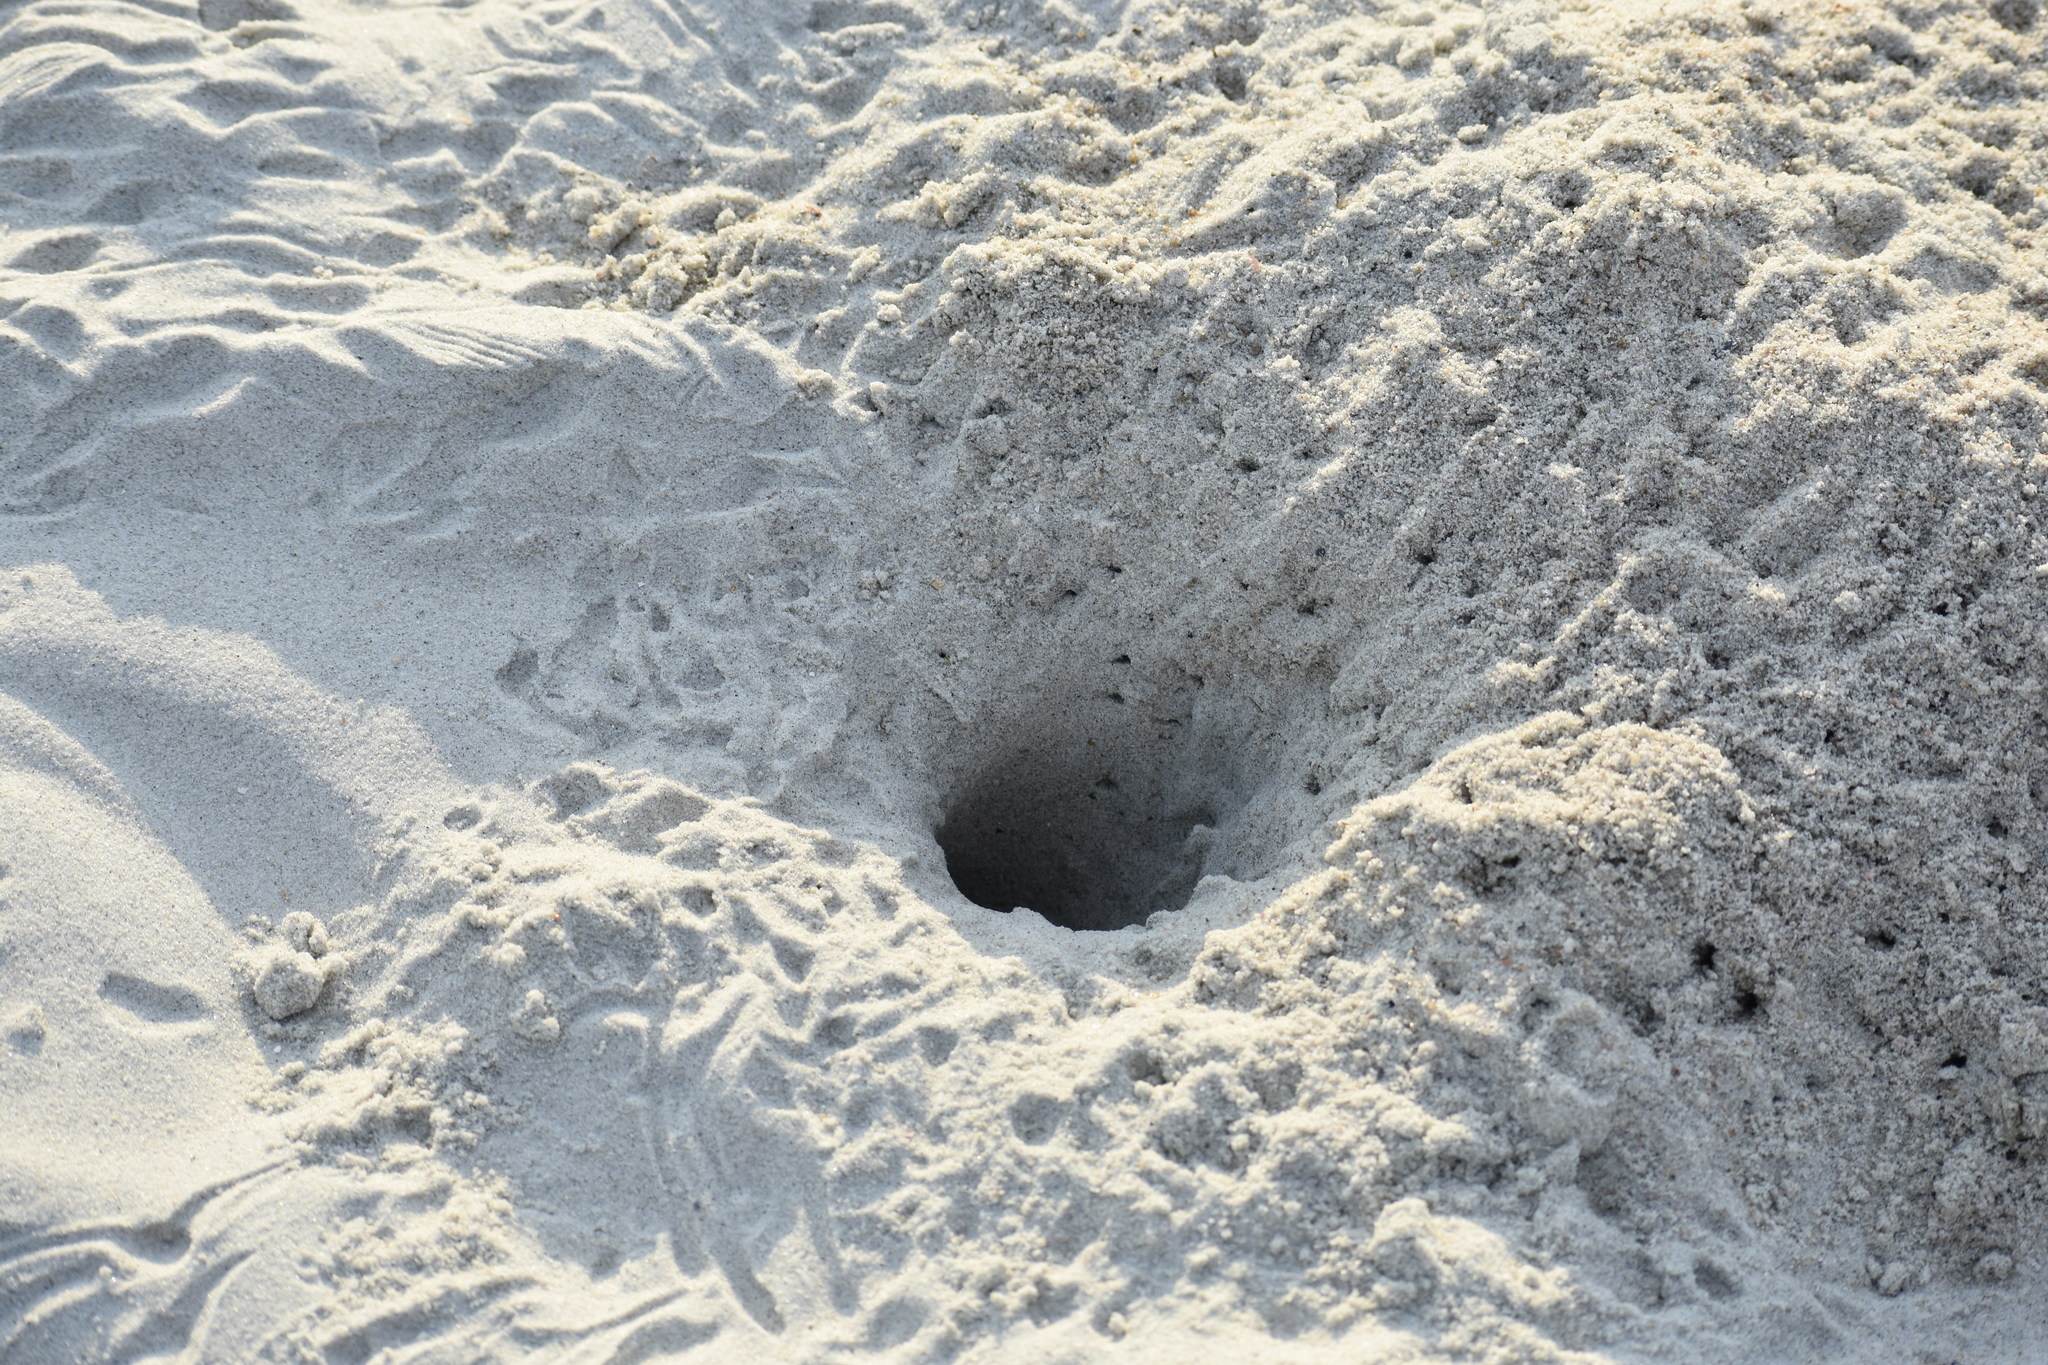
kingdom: Animalia
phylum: Arthropoda
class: Malacostraca
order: Decapoda
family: Ocypodidae
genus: Ocypode
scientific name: Ocypode quadrata
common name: Ghost crab
